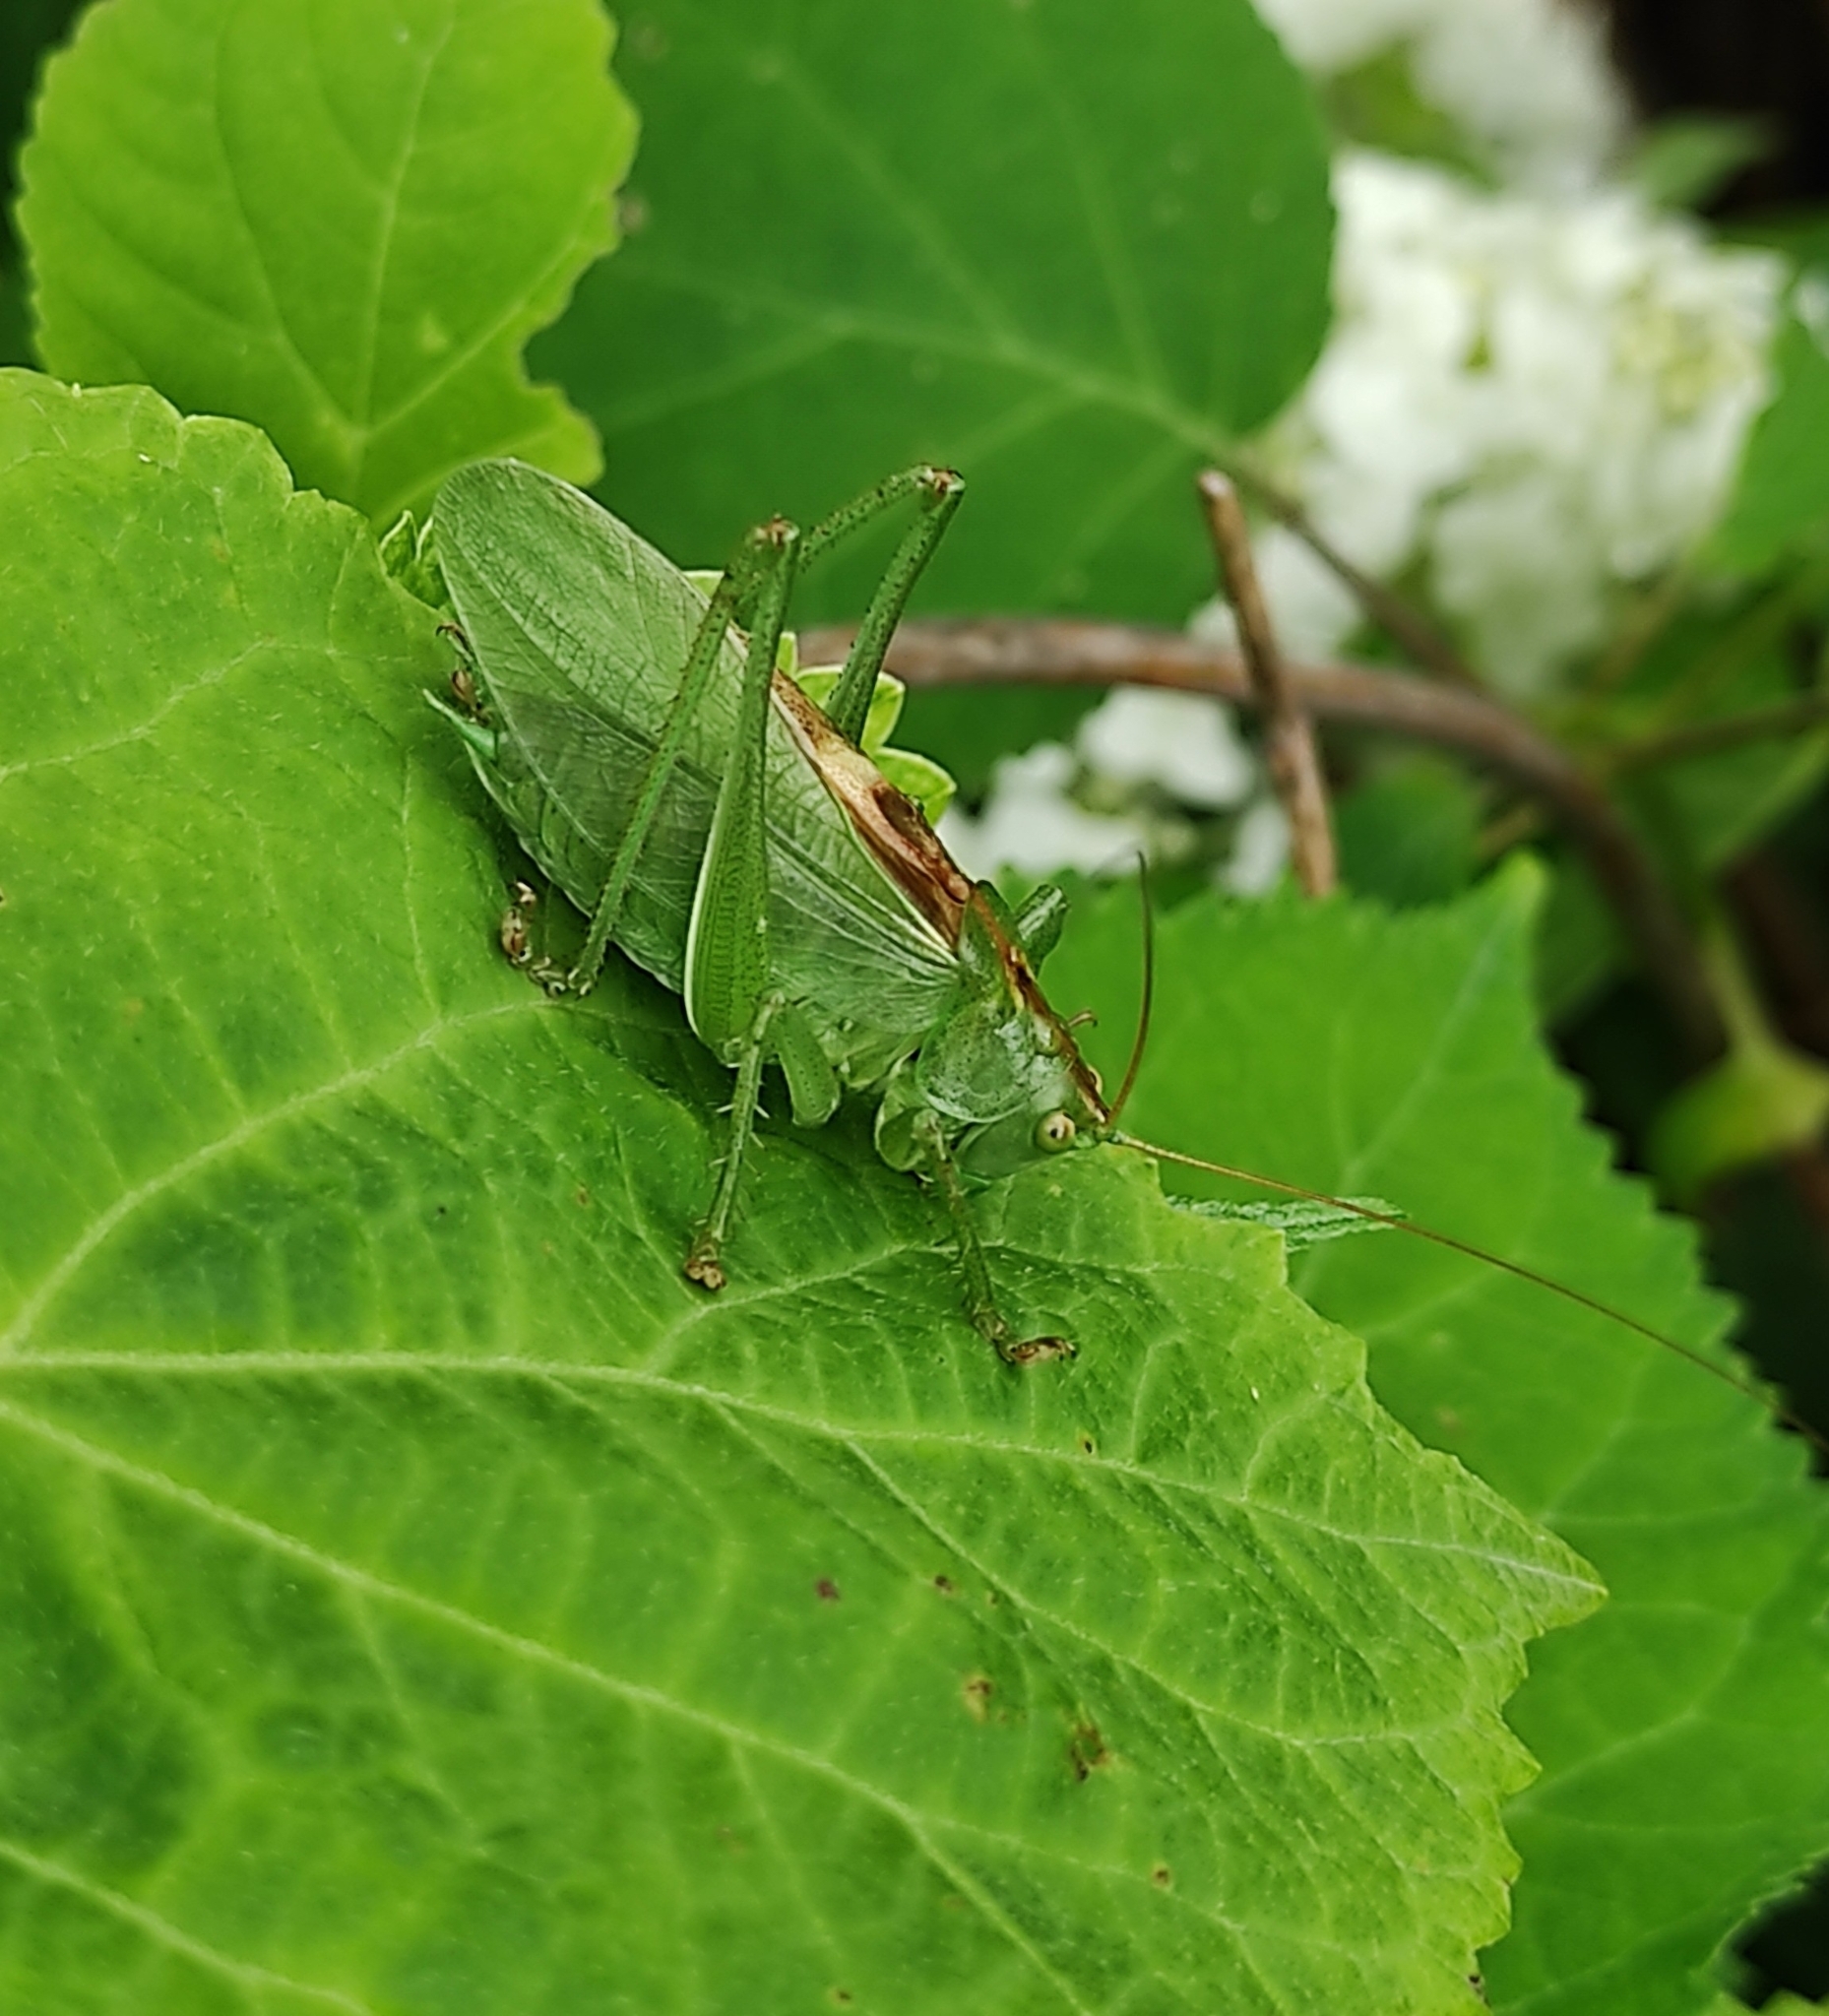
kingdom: Animalia
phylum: Arthropoda
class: Insecta
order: Orthoptera
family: Tettigoniidae
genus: Tettigonia
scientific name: Tettigonia cantans
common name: Upland green bush-cricket
